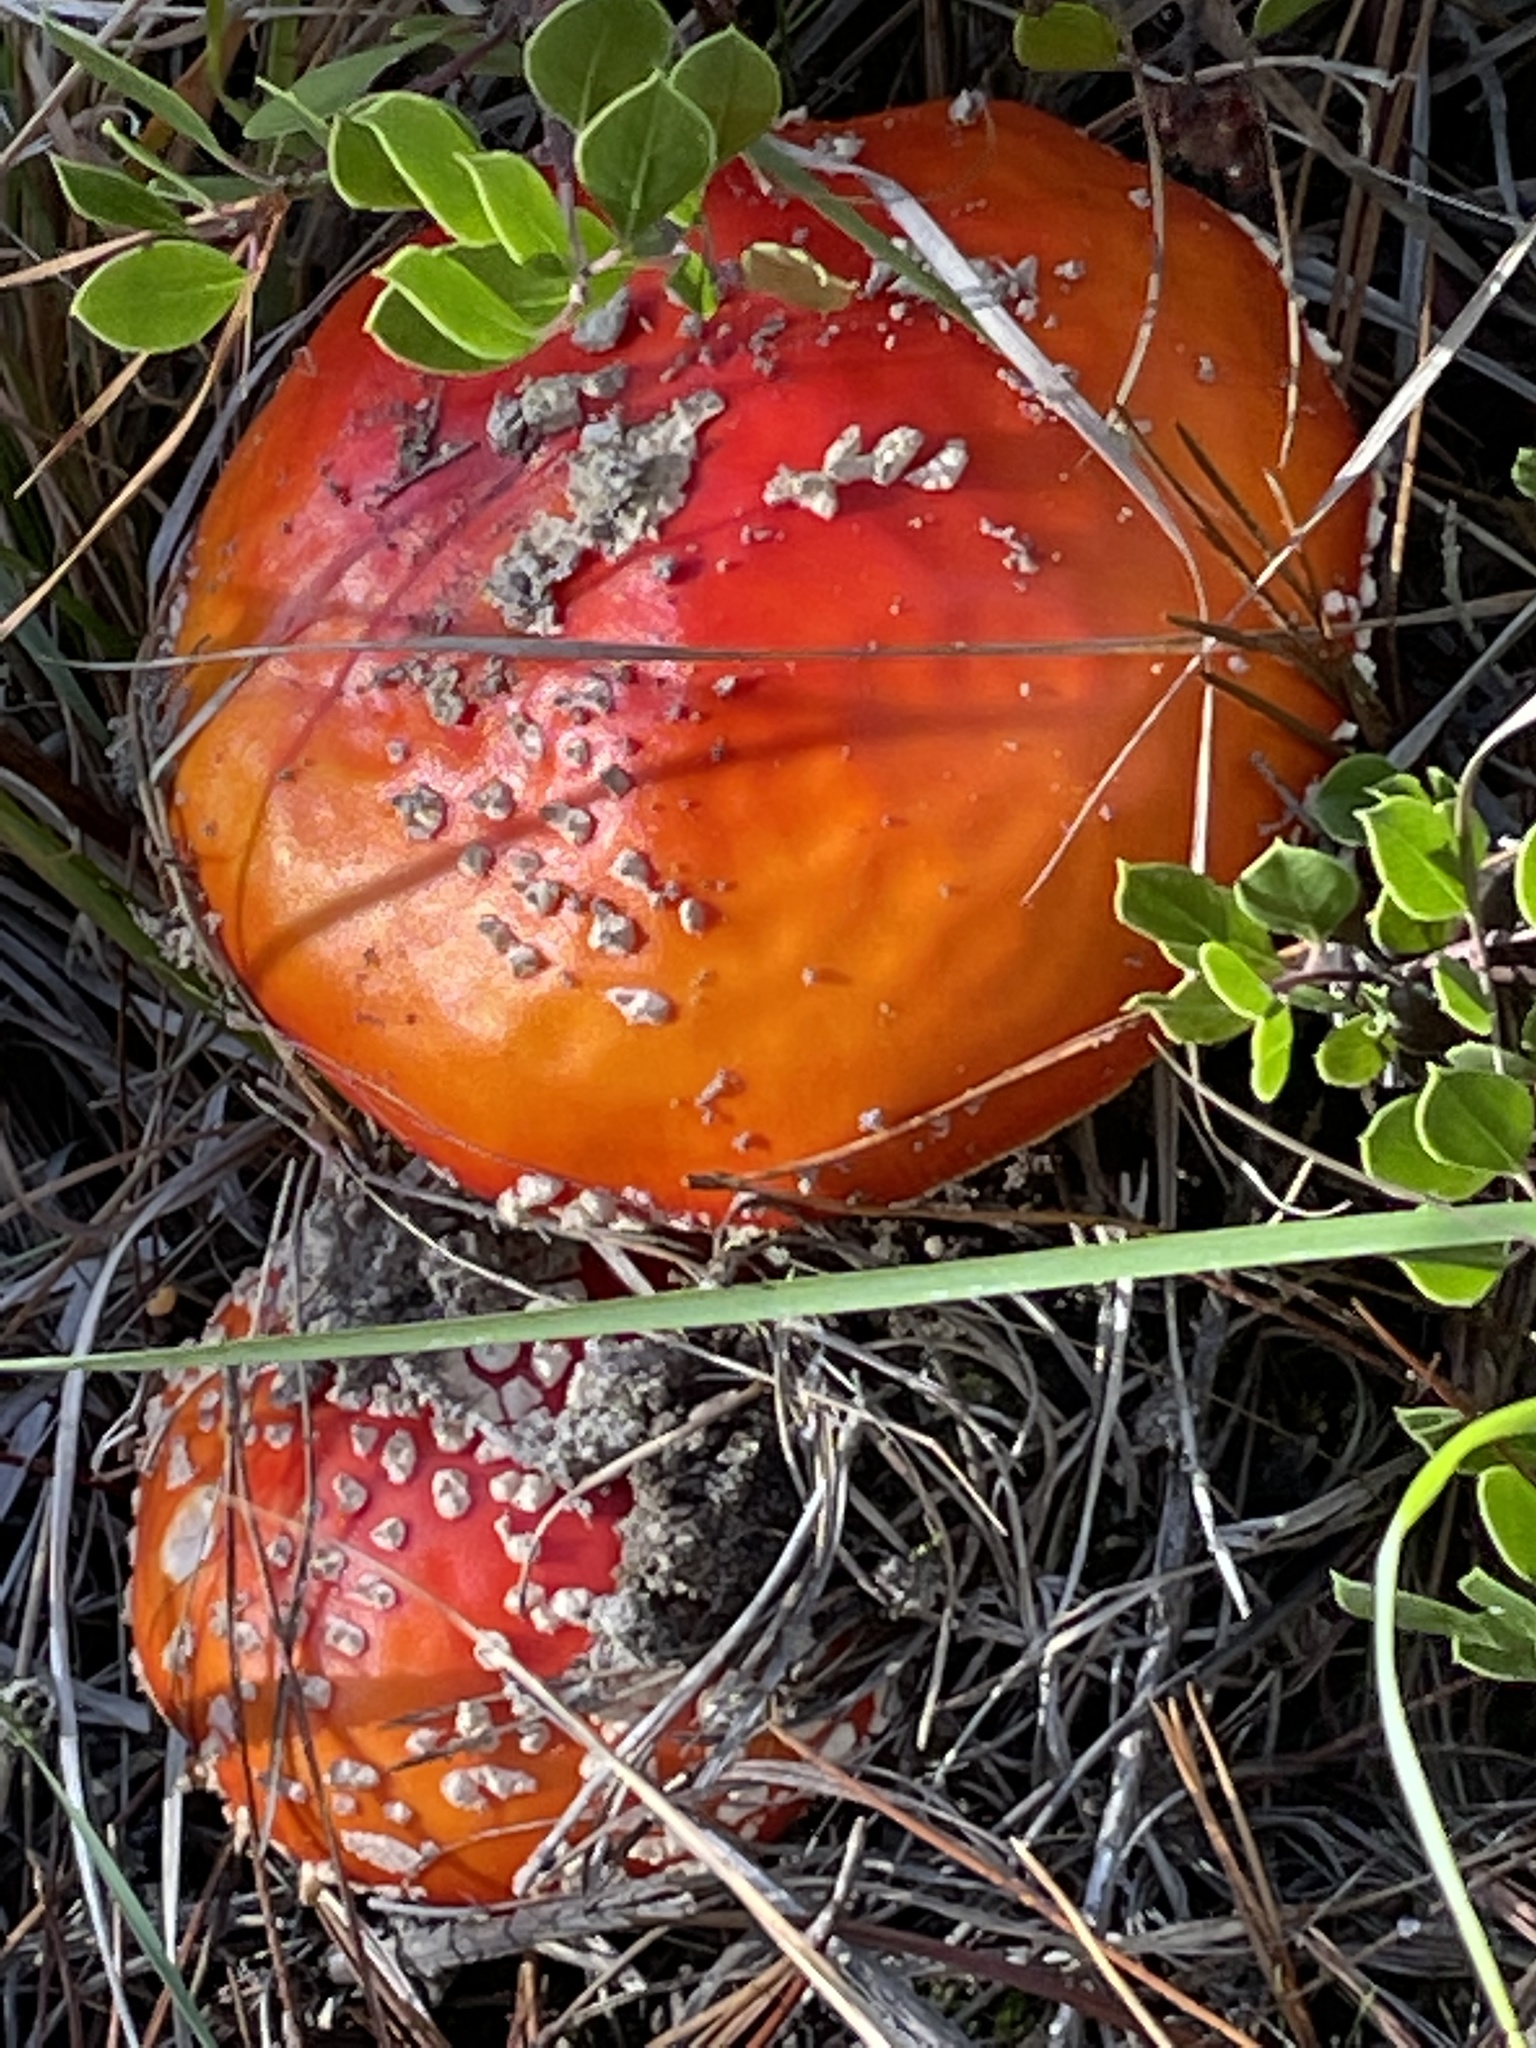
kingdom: Fungi
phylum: Basidiomycota
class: Agaricomycetes
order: Agaricales
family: Amanitaceae
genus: Amanita
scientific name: Amanita muscaria
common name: Fly agaric
